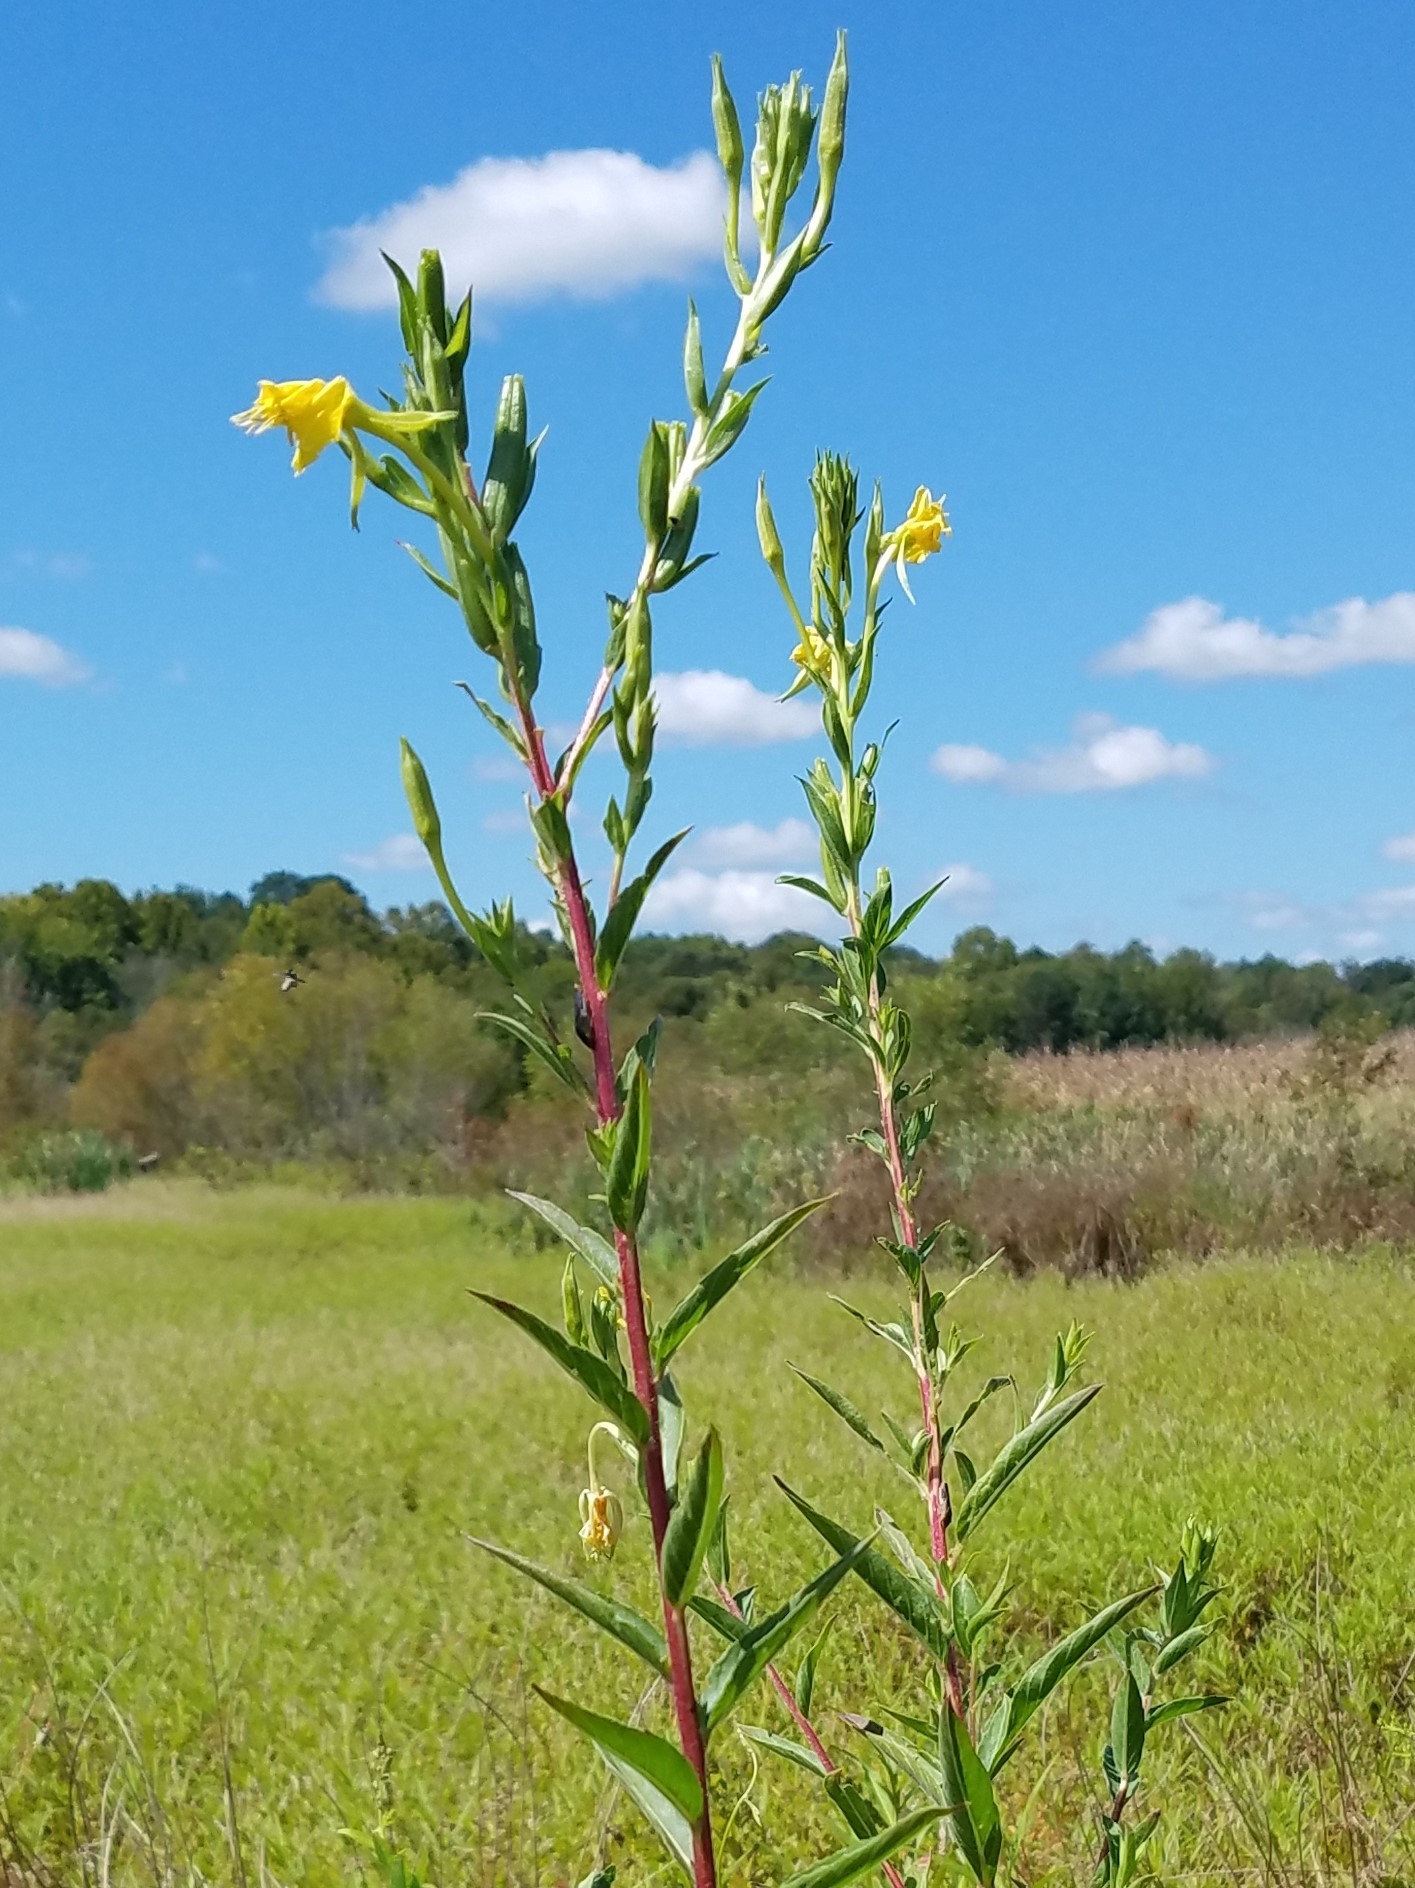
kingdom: Plantae
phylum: Tracheophyta
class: Magnoliopsida
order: Myrtales
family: Onagraceae
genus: Oenothera
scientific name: Oenothera biennis
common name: Common evening-primrose
